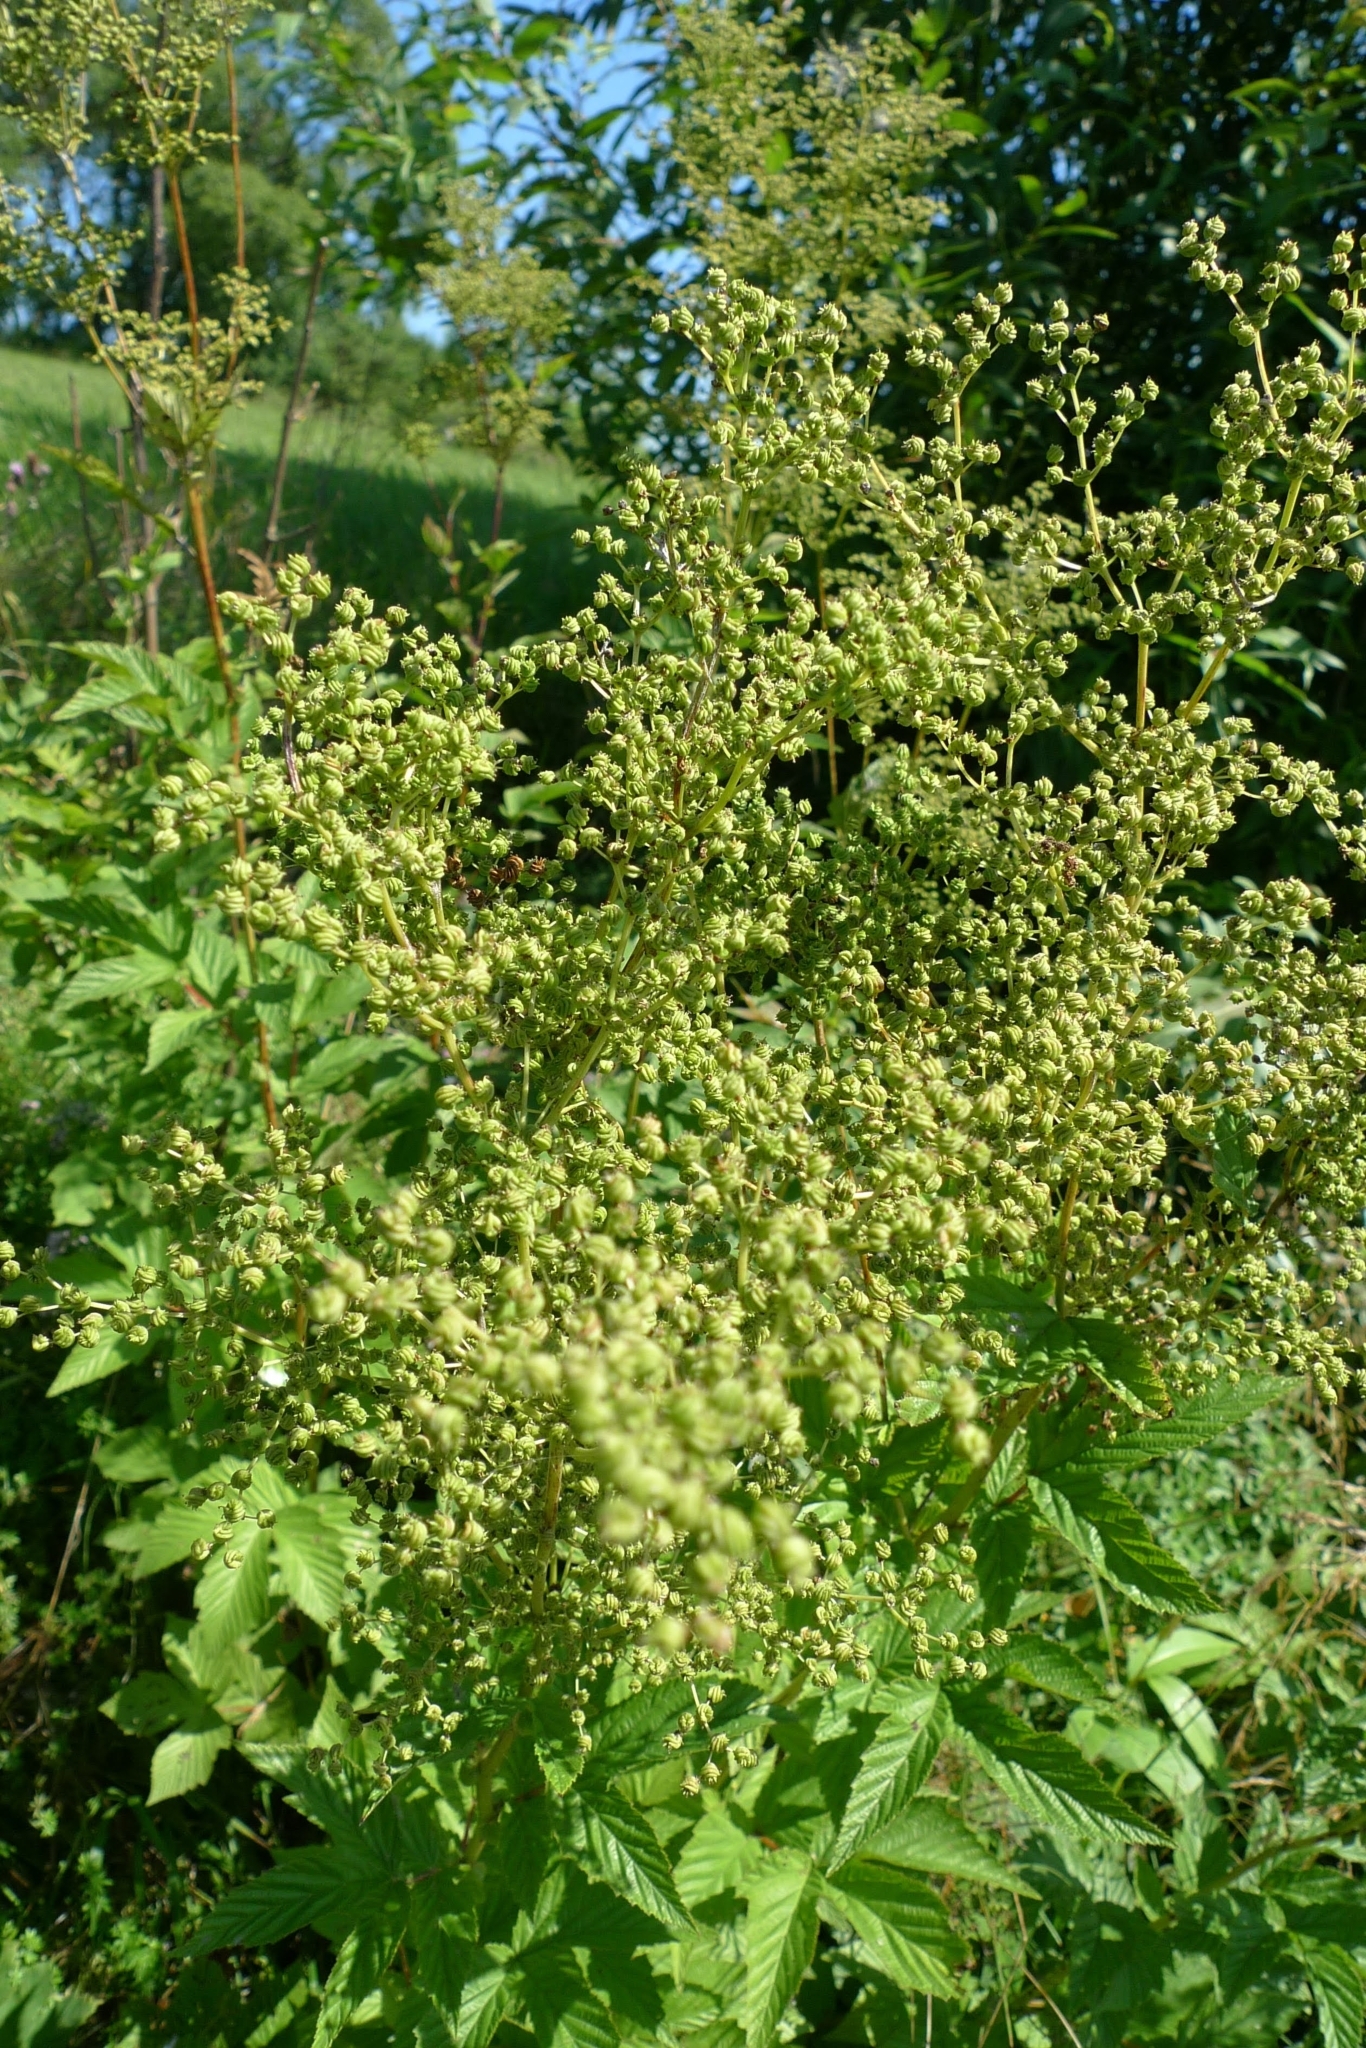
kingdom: Plantae
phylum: Tracheophyta
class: Magnoliopsida
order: Rosales
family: Rosaceae
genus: Filipendula
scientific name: Filipendula ulmaria
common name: Meadowsweet
